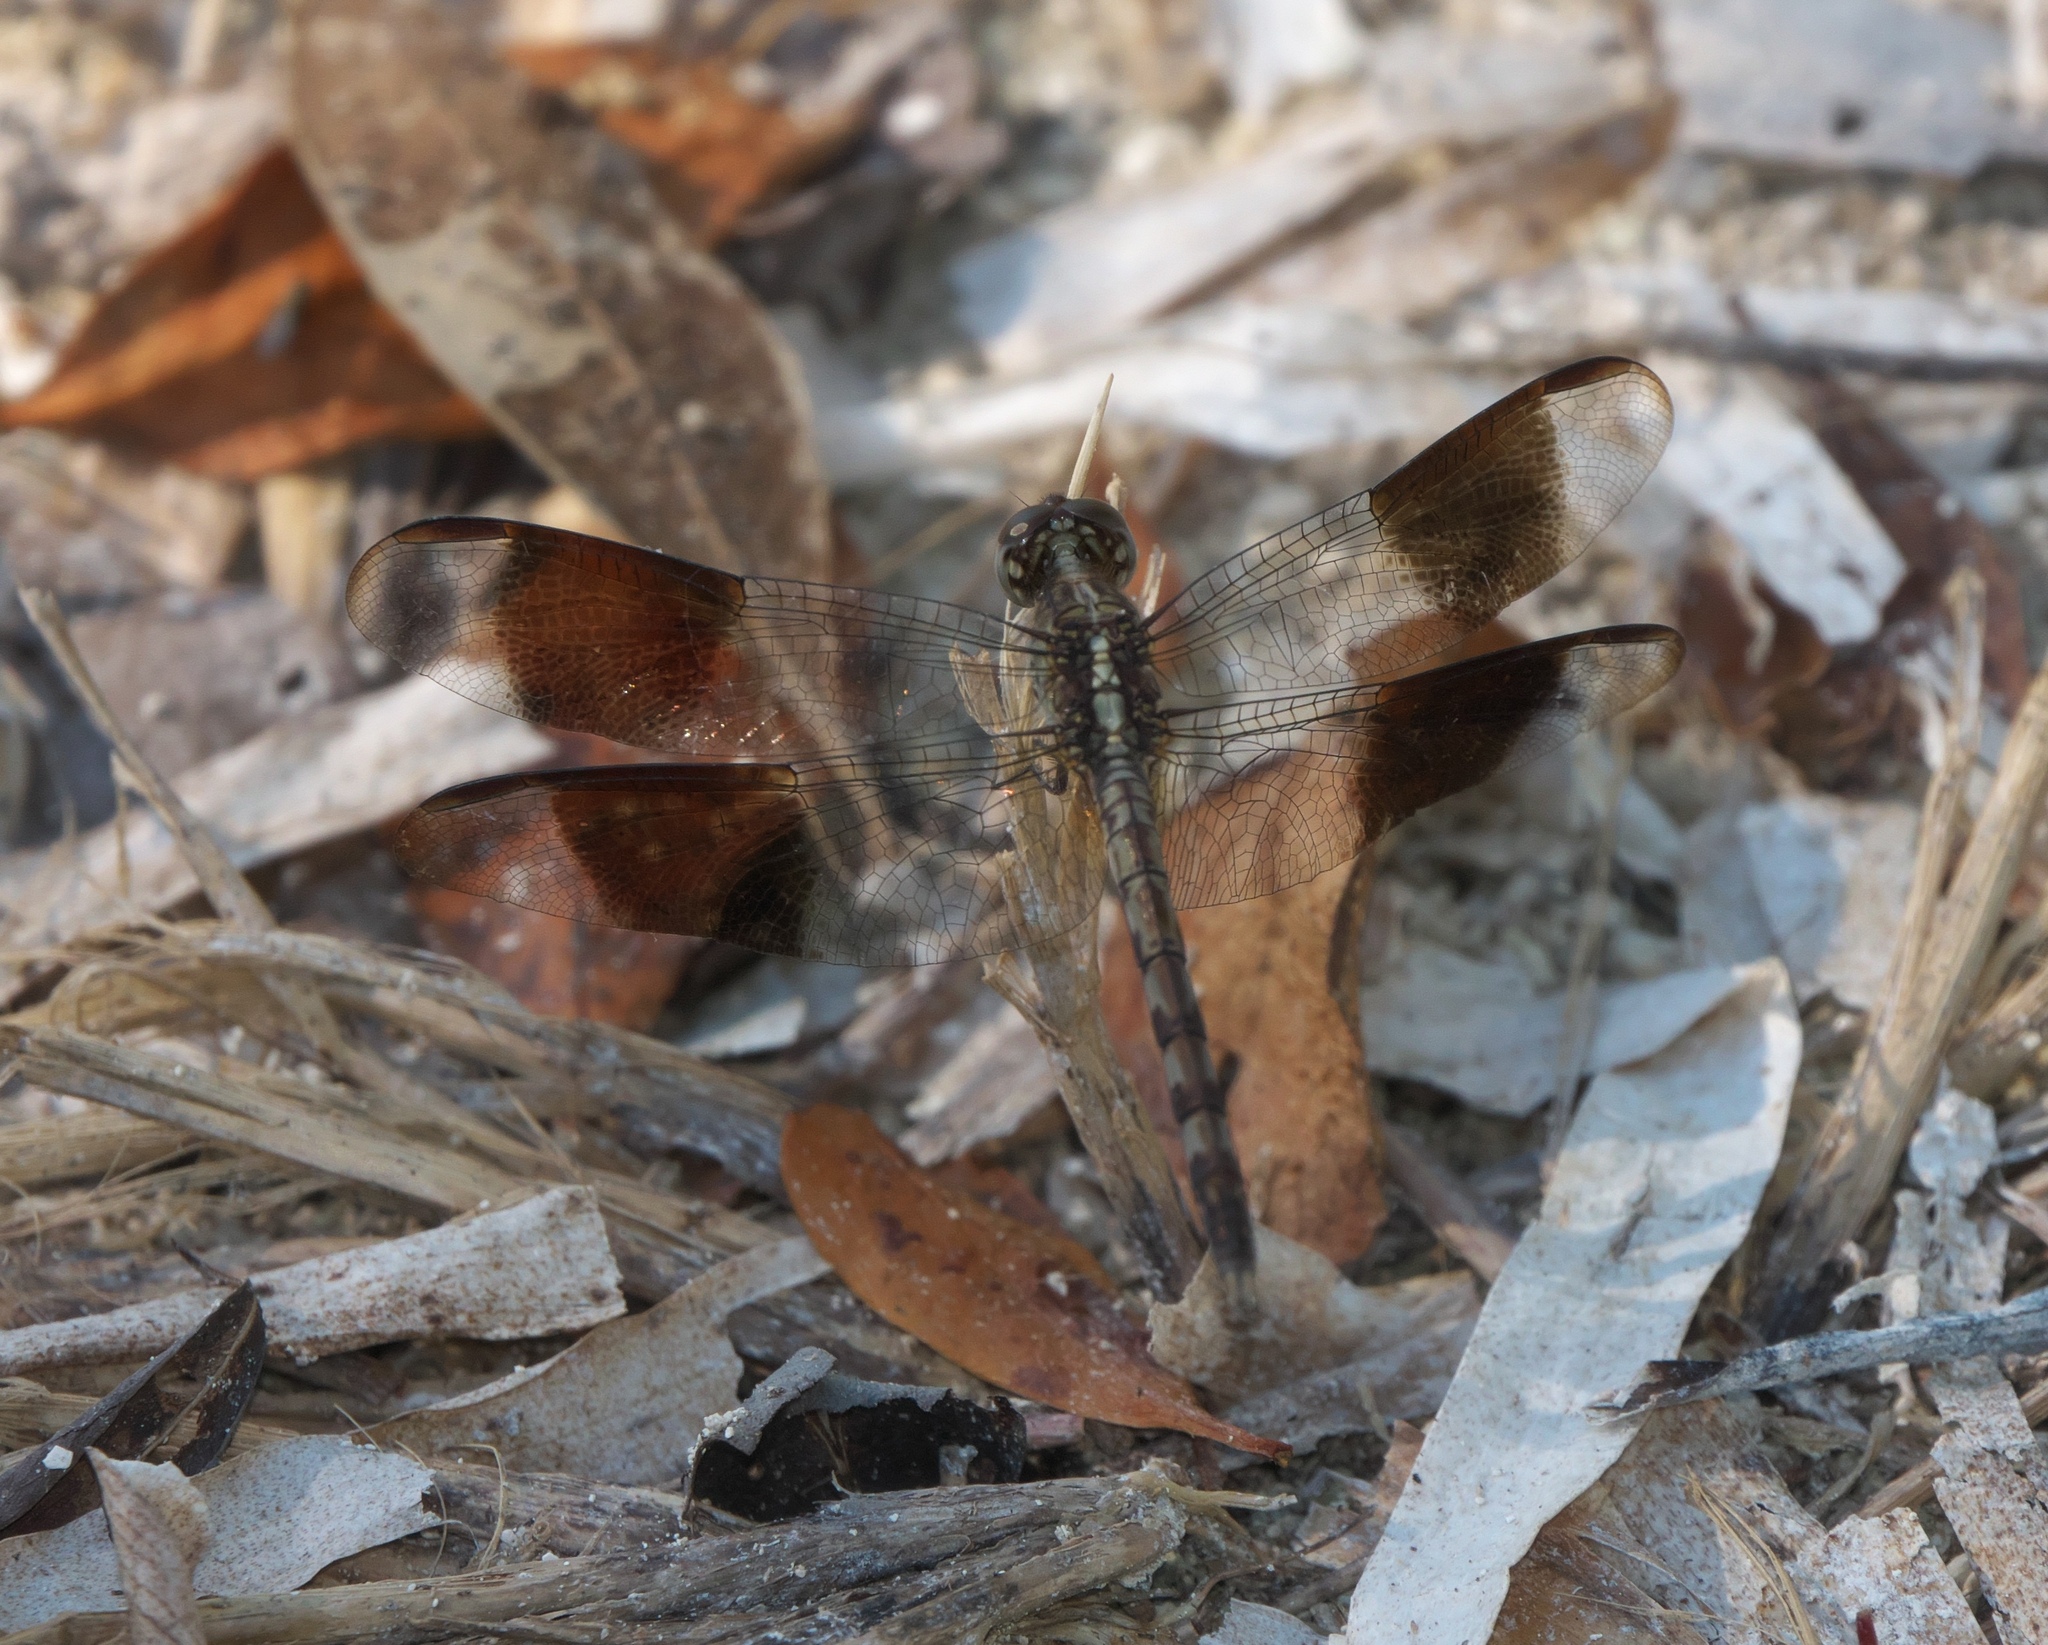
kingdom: Animalia
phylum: Arthropoda
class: Insecta
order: Odonata
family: Libellulidae
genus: Erythrodiplax
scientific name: Erythrodiplax umbrata
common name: Band-winged dragonlet
